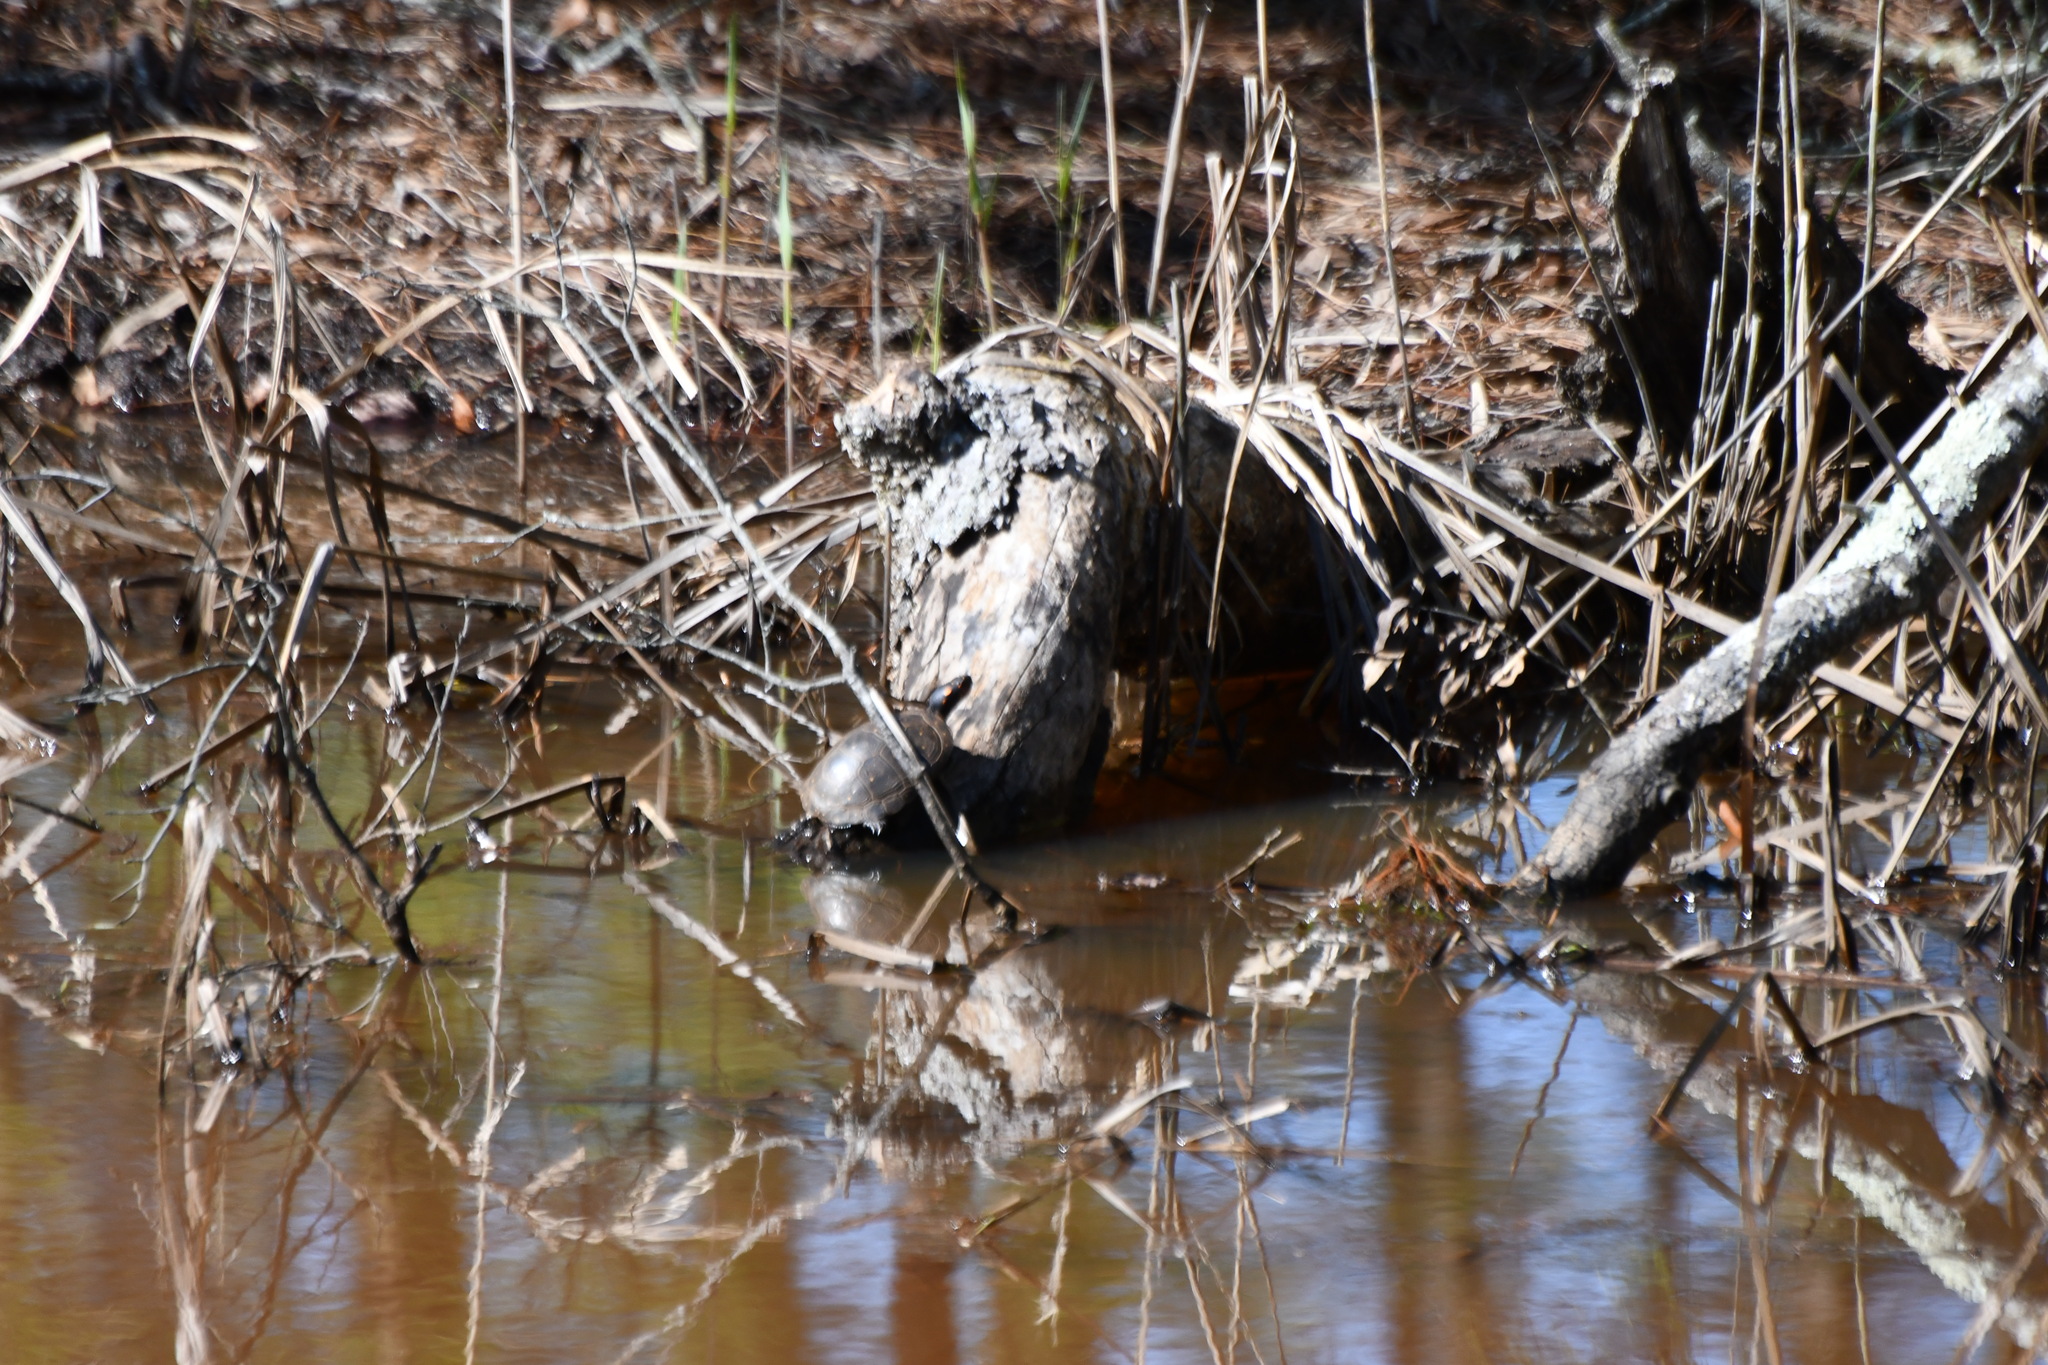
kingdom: Animalia
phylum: Chordata
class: Testudines
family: Emydidae
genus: Clemmys
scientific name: Clemmys guttata
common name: Spotted turtle
